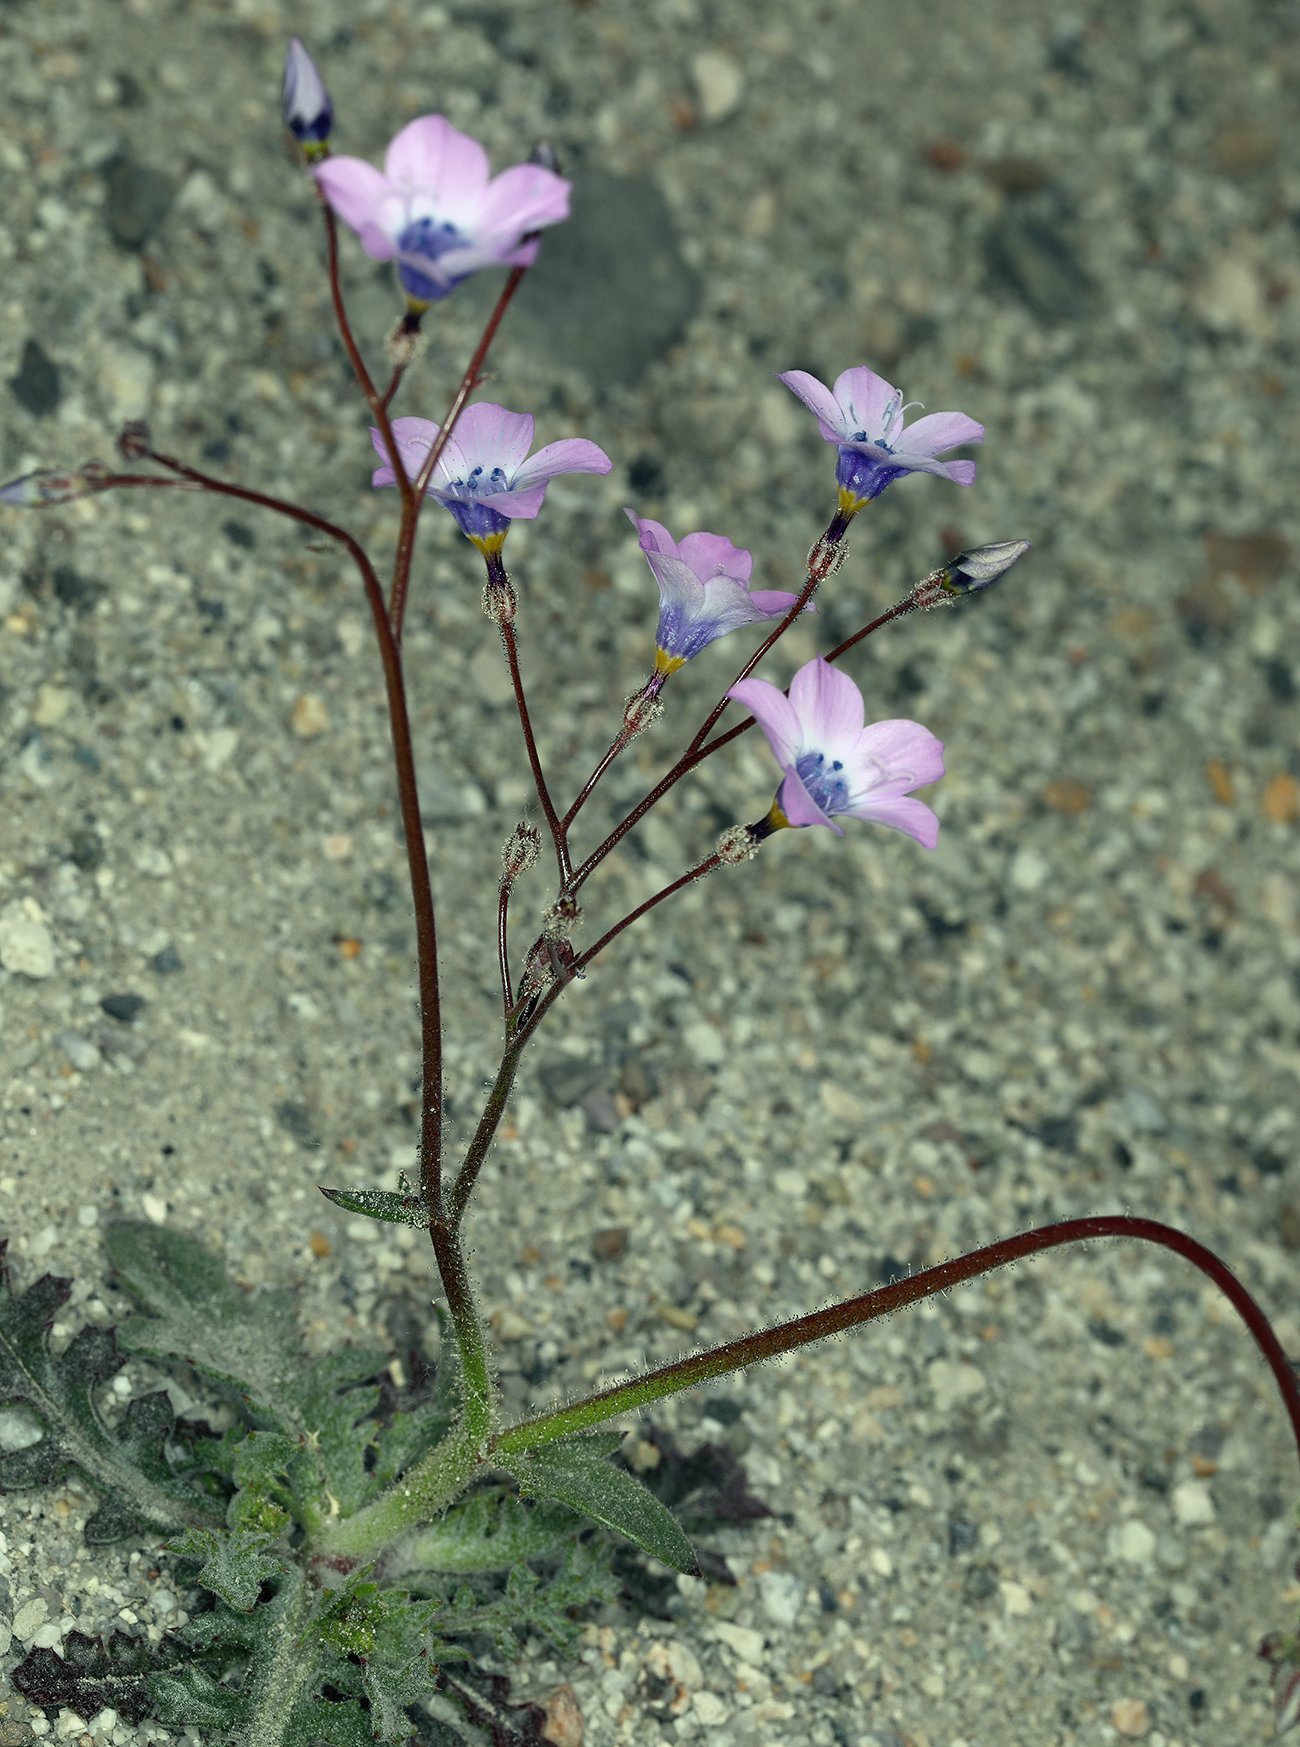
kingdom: Plantae
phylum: Tracheophyta
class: Magnoliopsida
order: Ericales
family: Polemoniaceae
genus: Gilia
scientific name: Gilia cana
